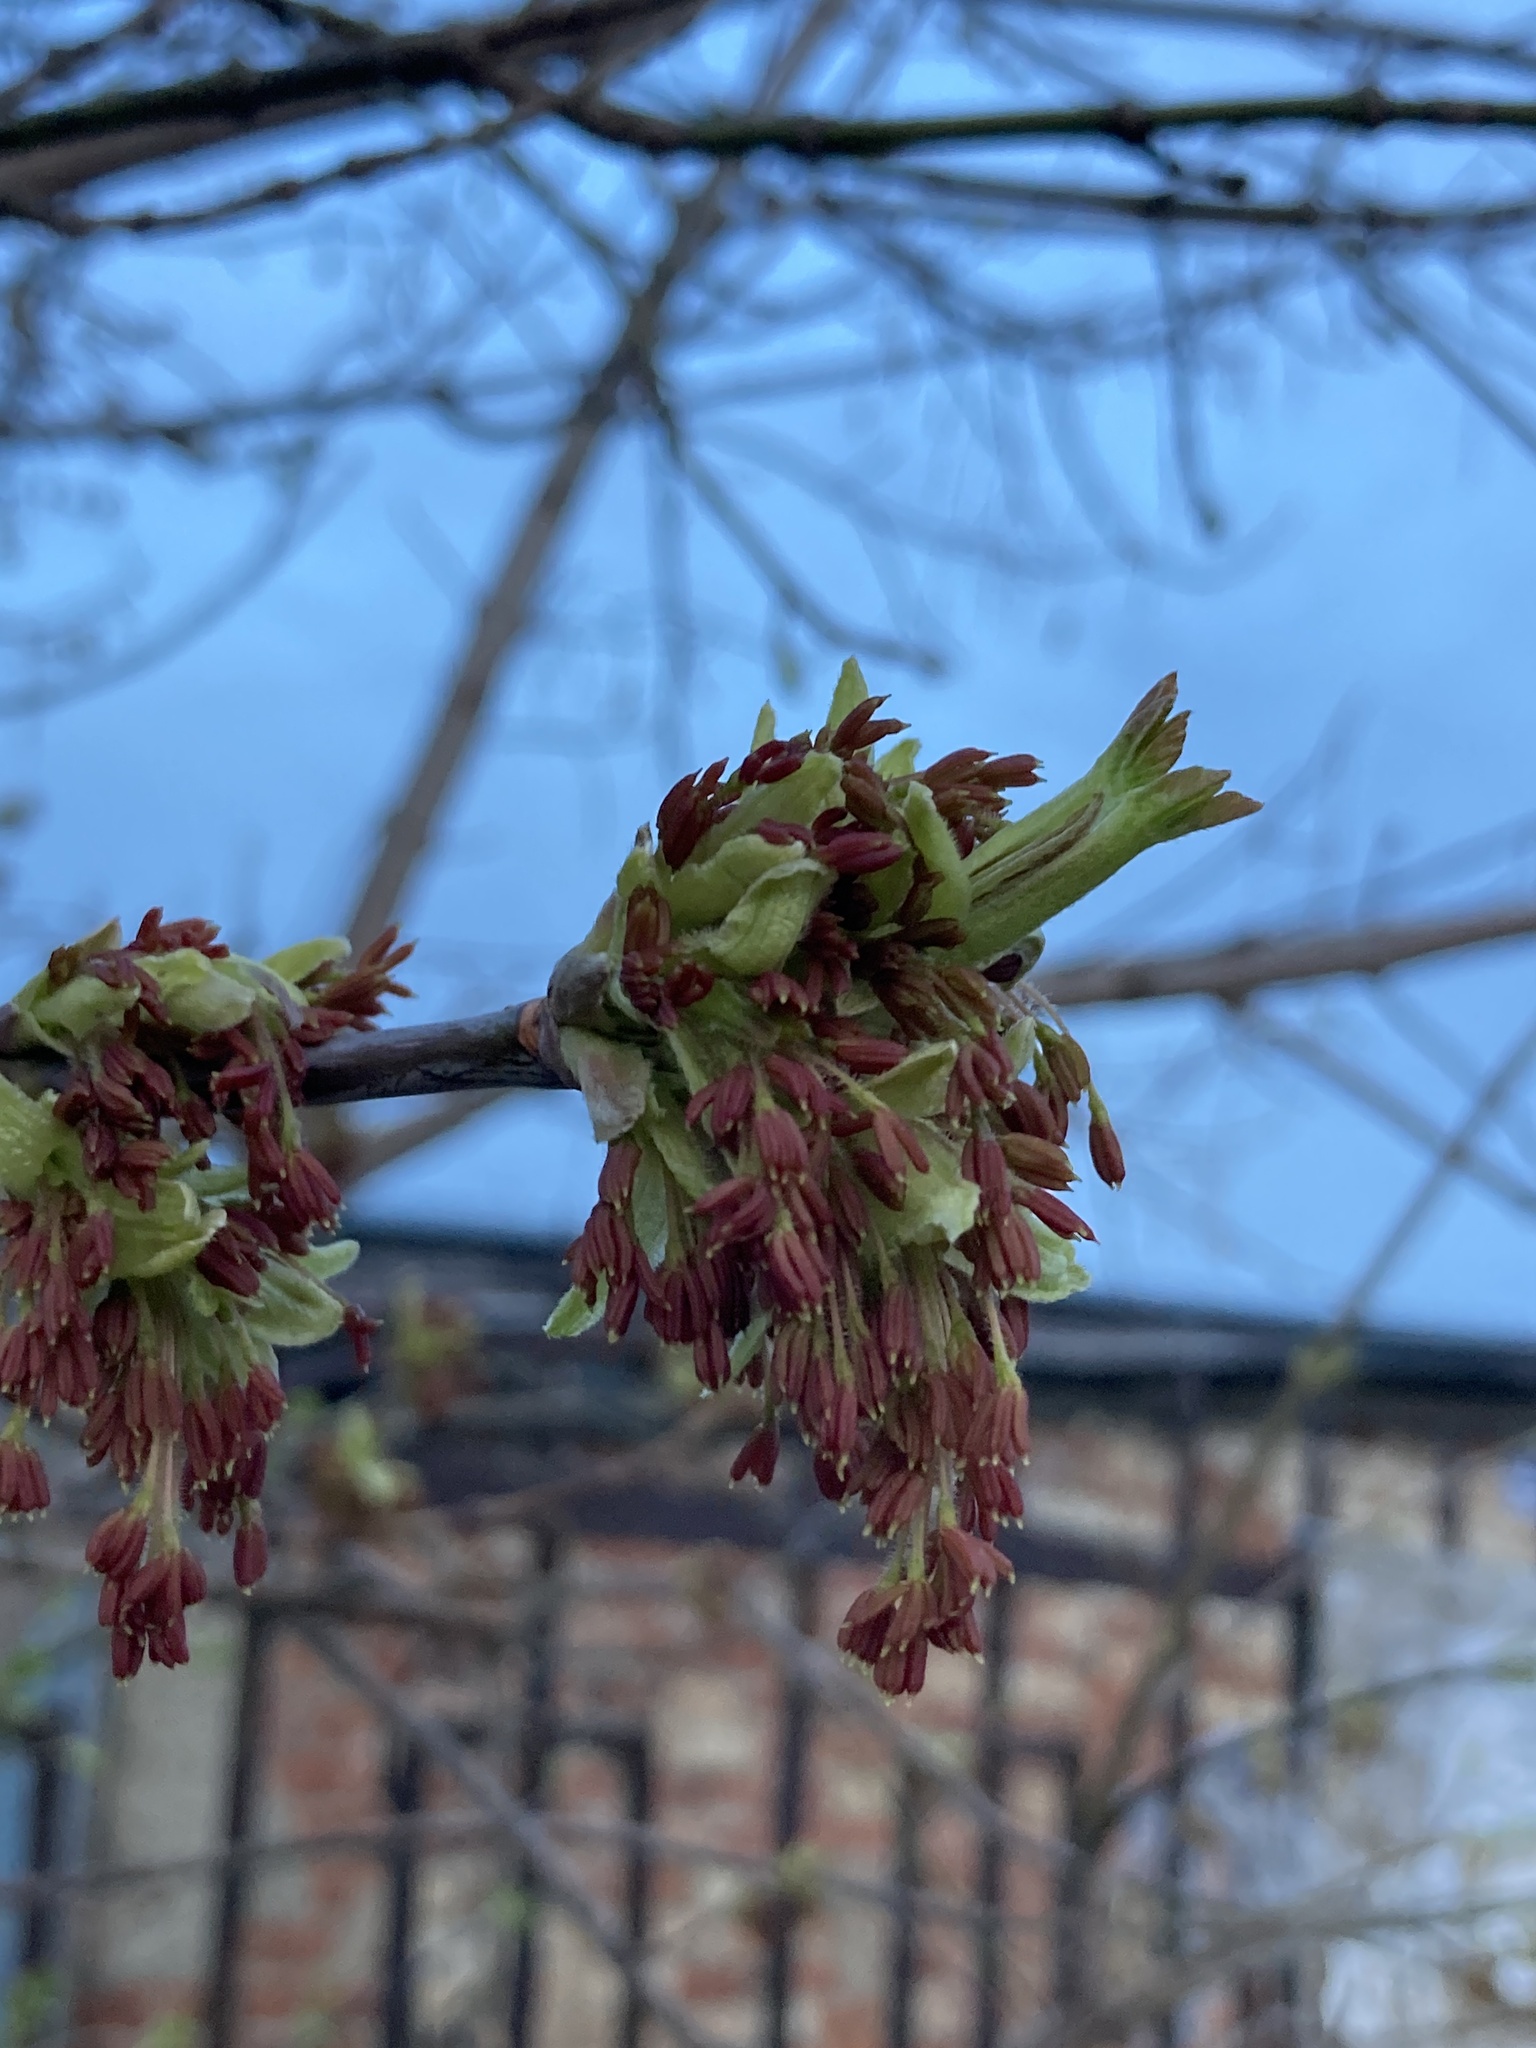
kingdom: Plantae
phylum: Tracheophyta
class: Magnoliopsida
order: Sapindales
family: Sapindaceae
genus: Acer
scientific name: Acer negundo
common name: Ashleaf maple
